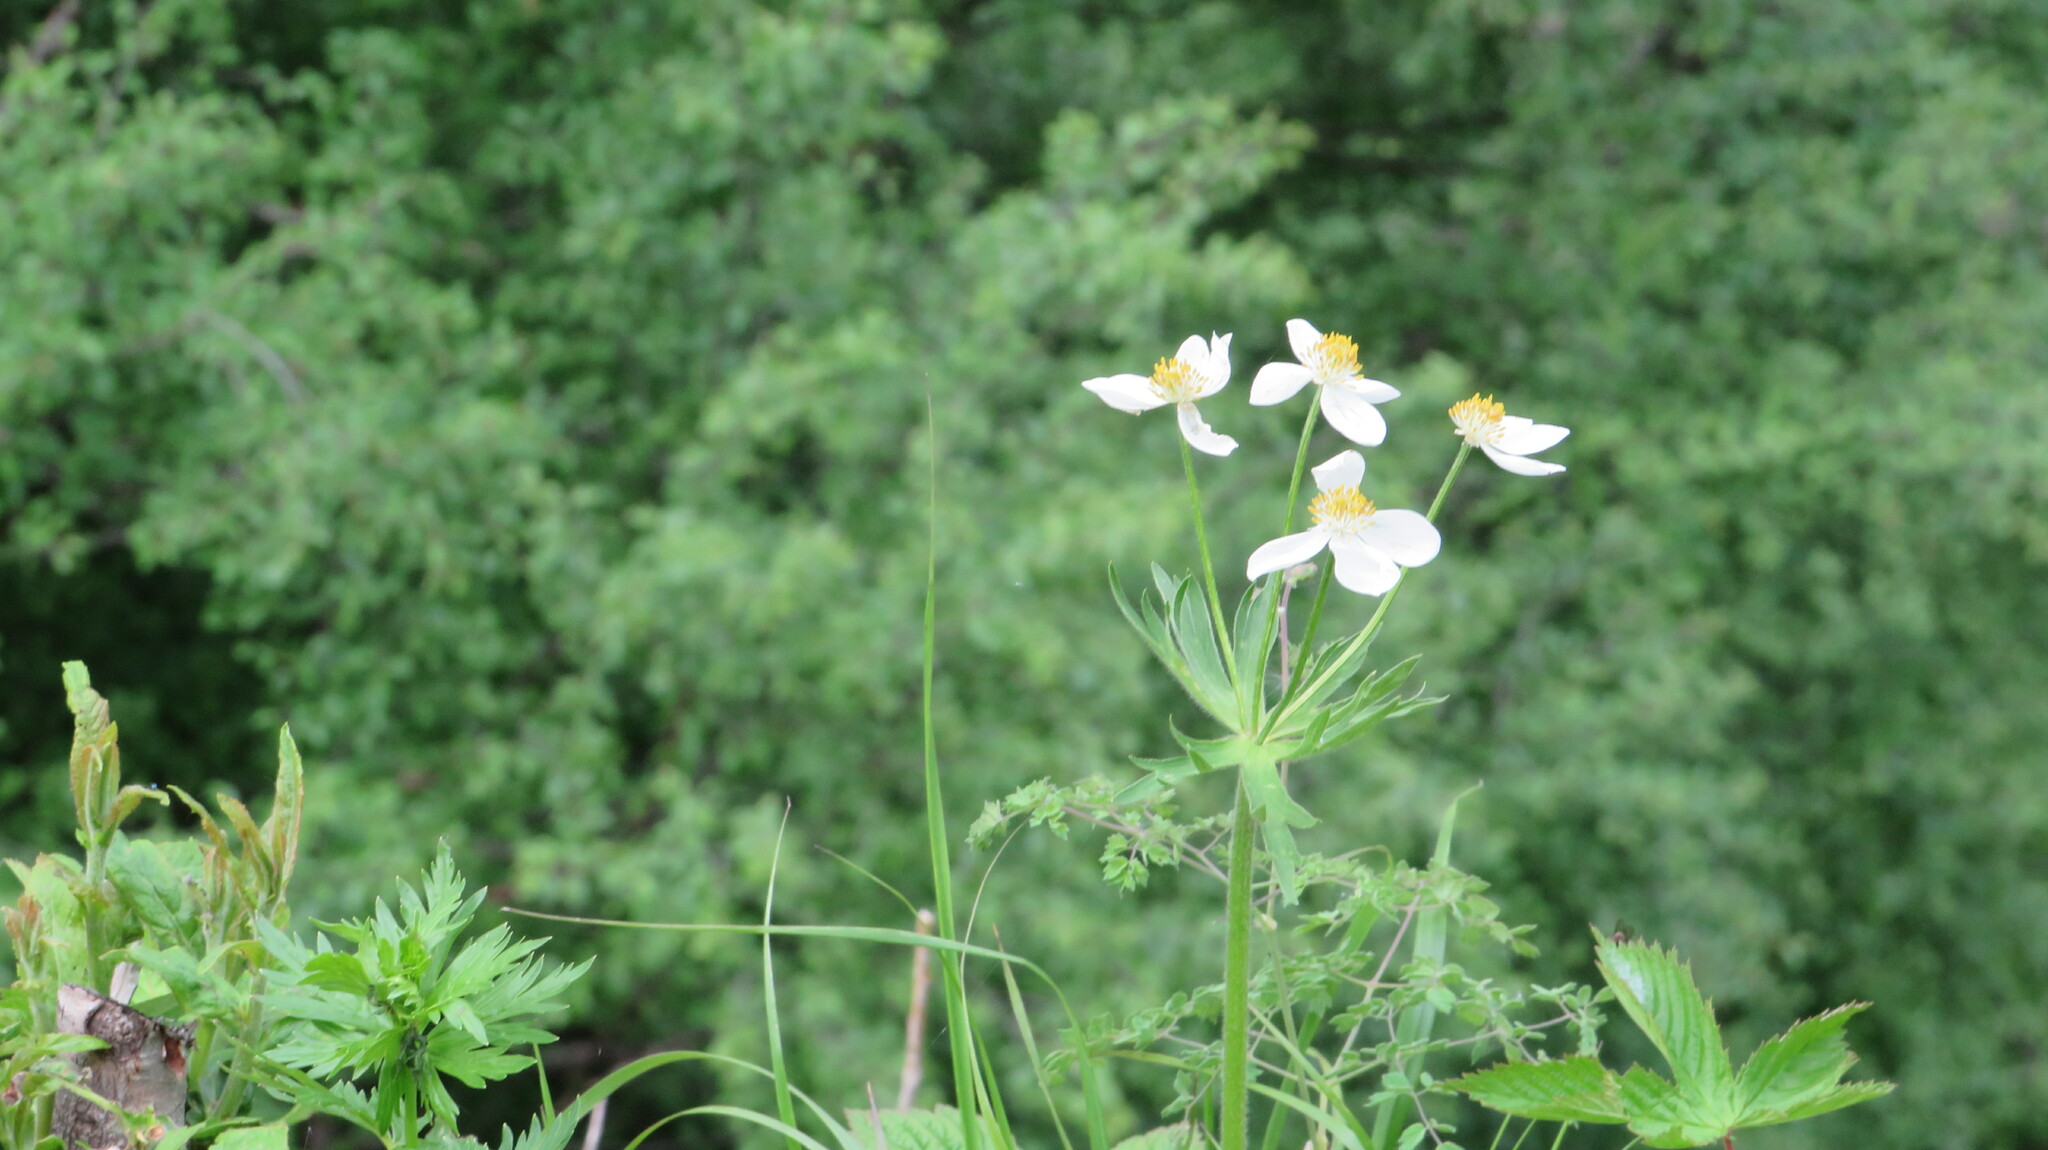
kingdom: Plantae
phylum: Tracheophyta
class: Magnoliopsida
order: Ranunculales
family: Ranunculaceae
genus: Anemonastrum
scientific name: Anemonastrum narcissiflorum
